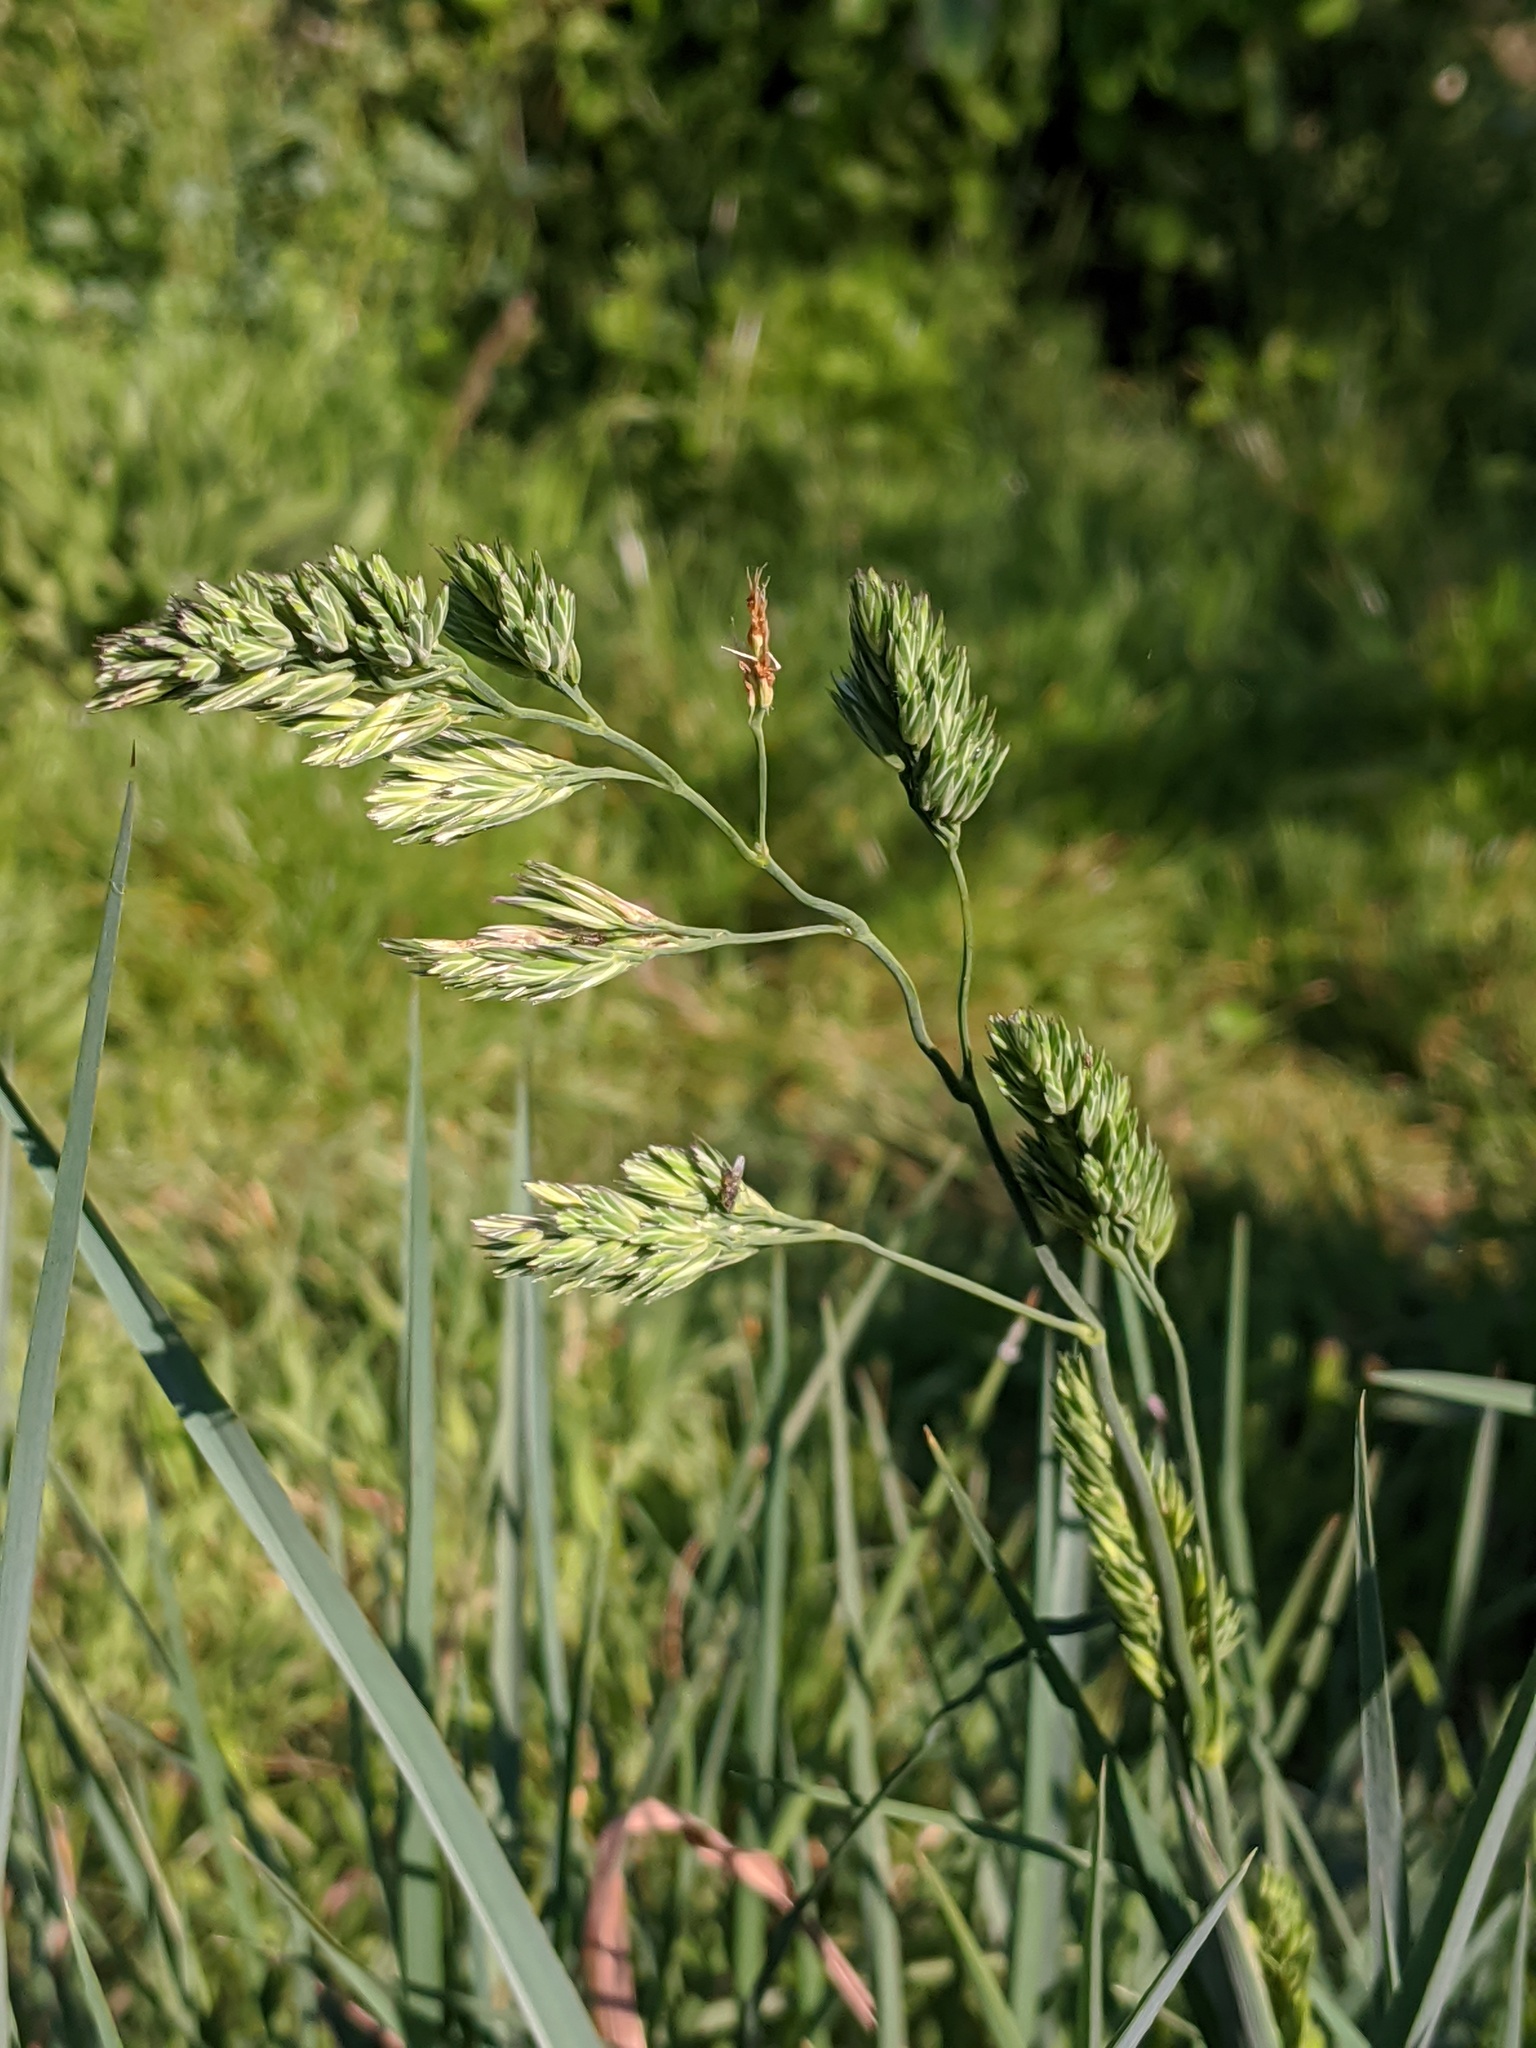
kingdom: Plantae
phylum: Tracheophyta
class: Liliopsida
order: Poales
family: Poaceae
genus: Dactylis
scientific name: Dactylis glomerata
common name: Orchardgrass
